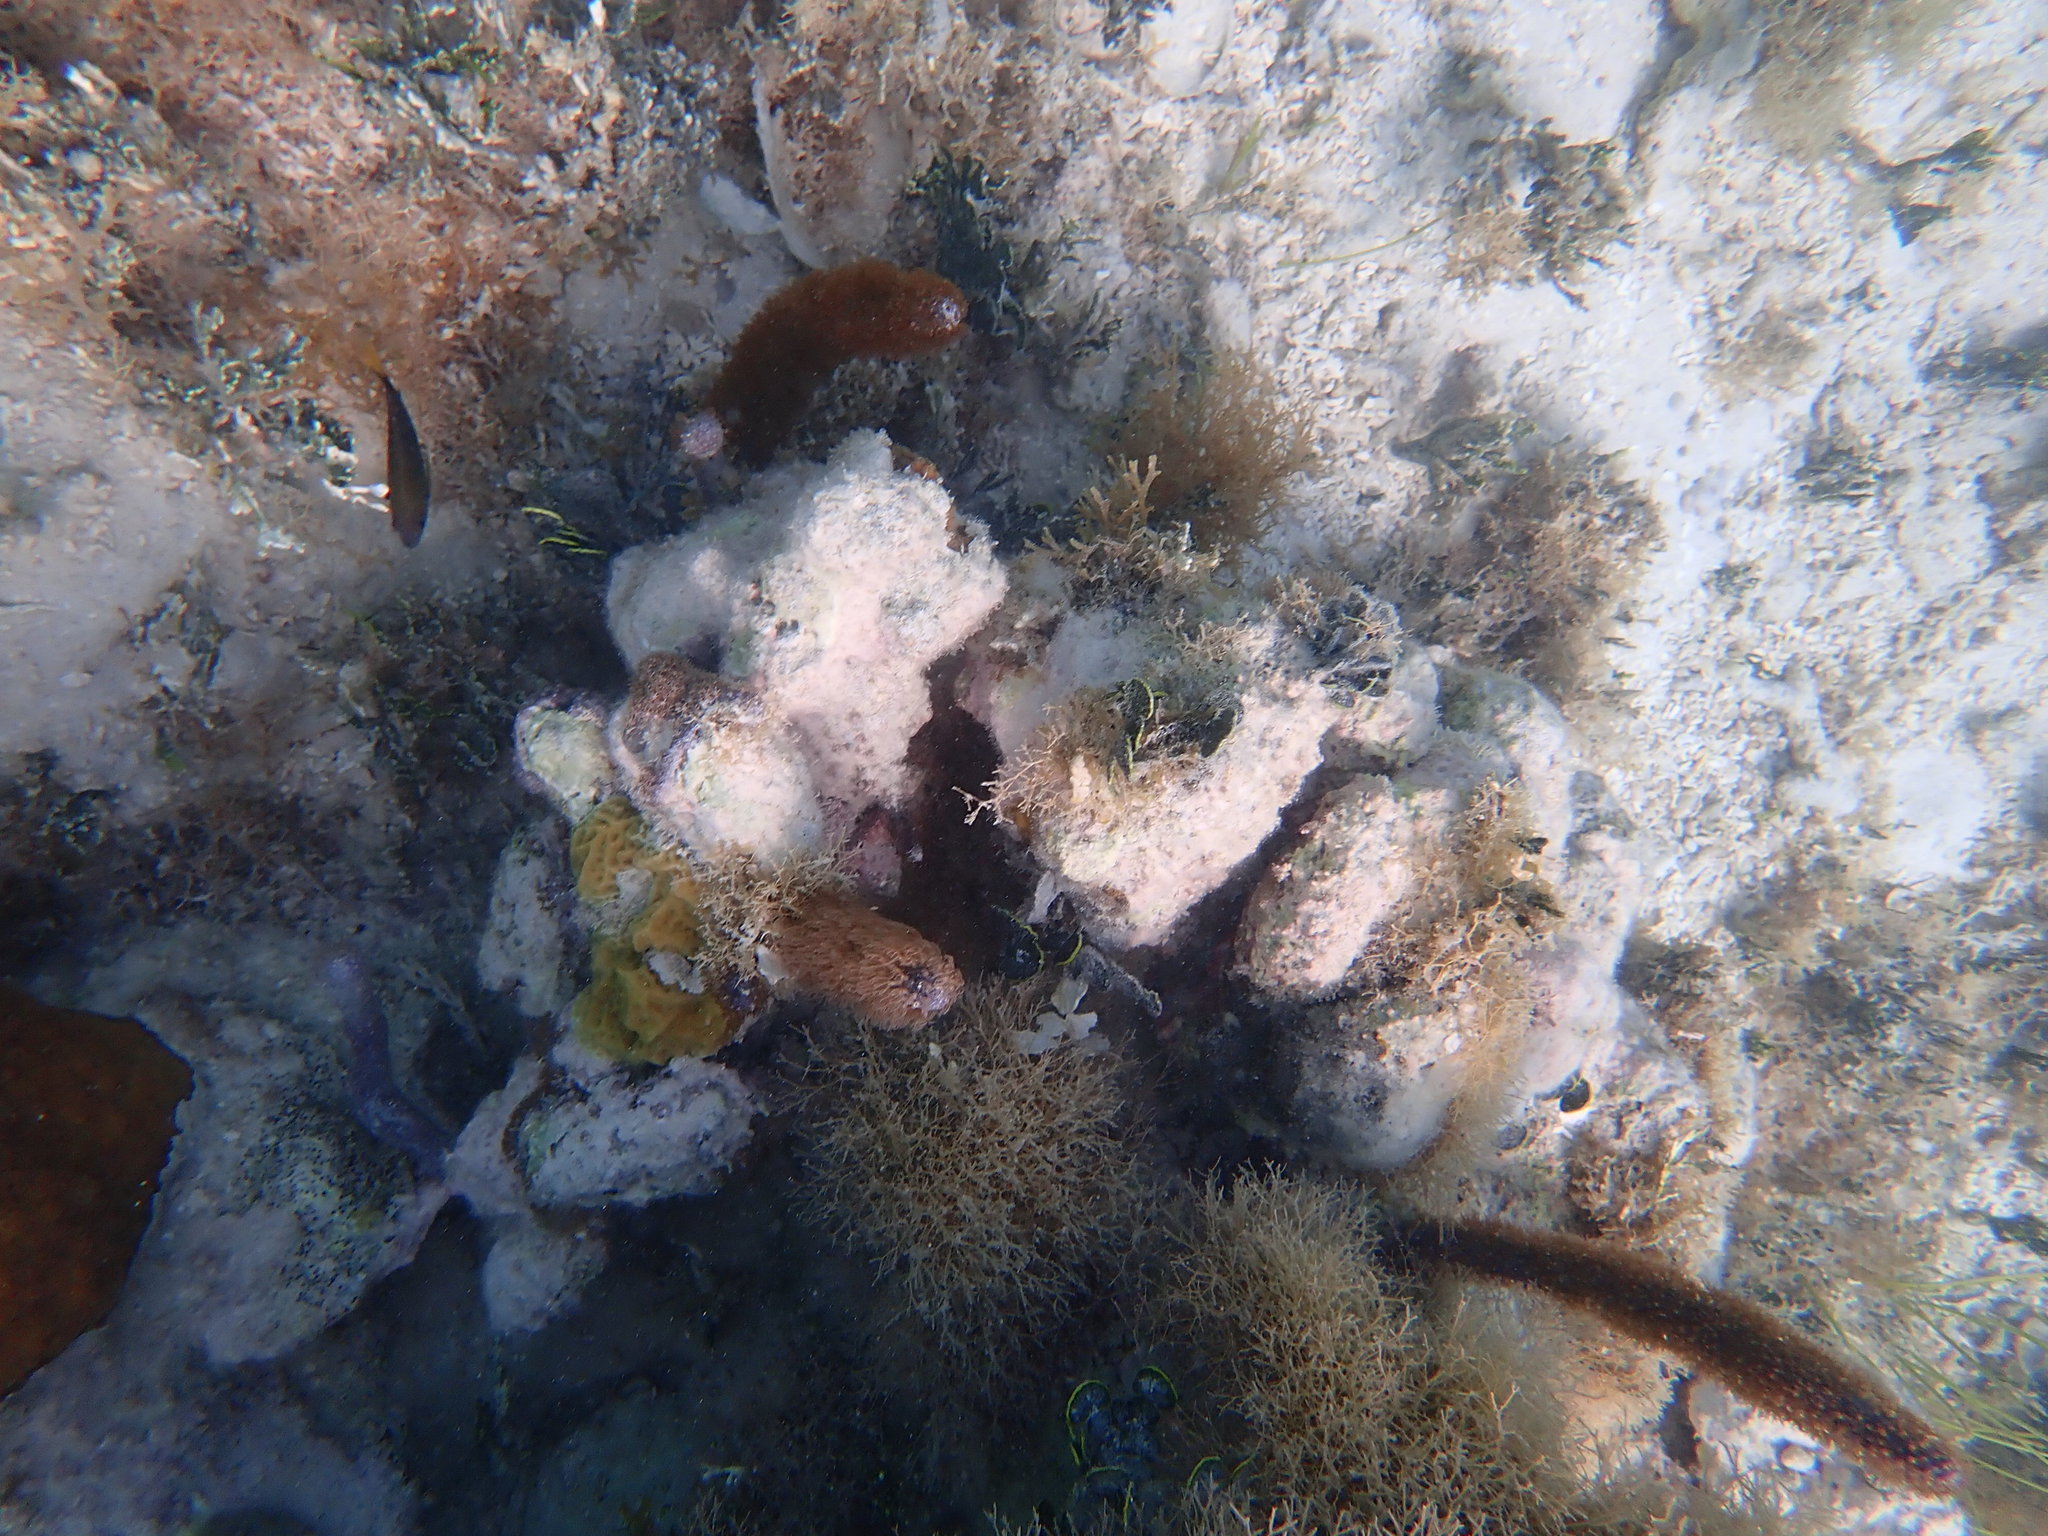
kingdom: Animalia
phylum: Cnidaria
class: Anthozoa
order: Scleralcyonacea
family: Briareidae
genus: Briareum
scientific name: Briareum asbestinum
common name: Corky sea finger
